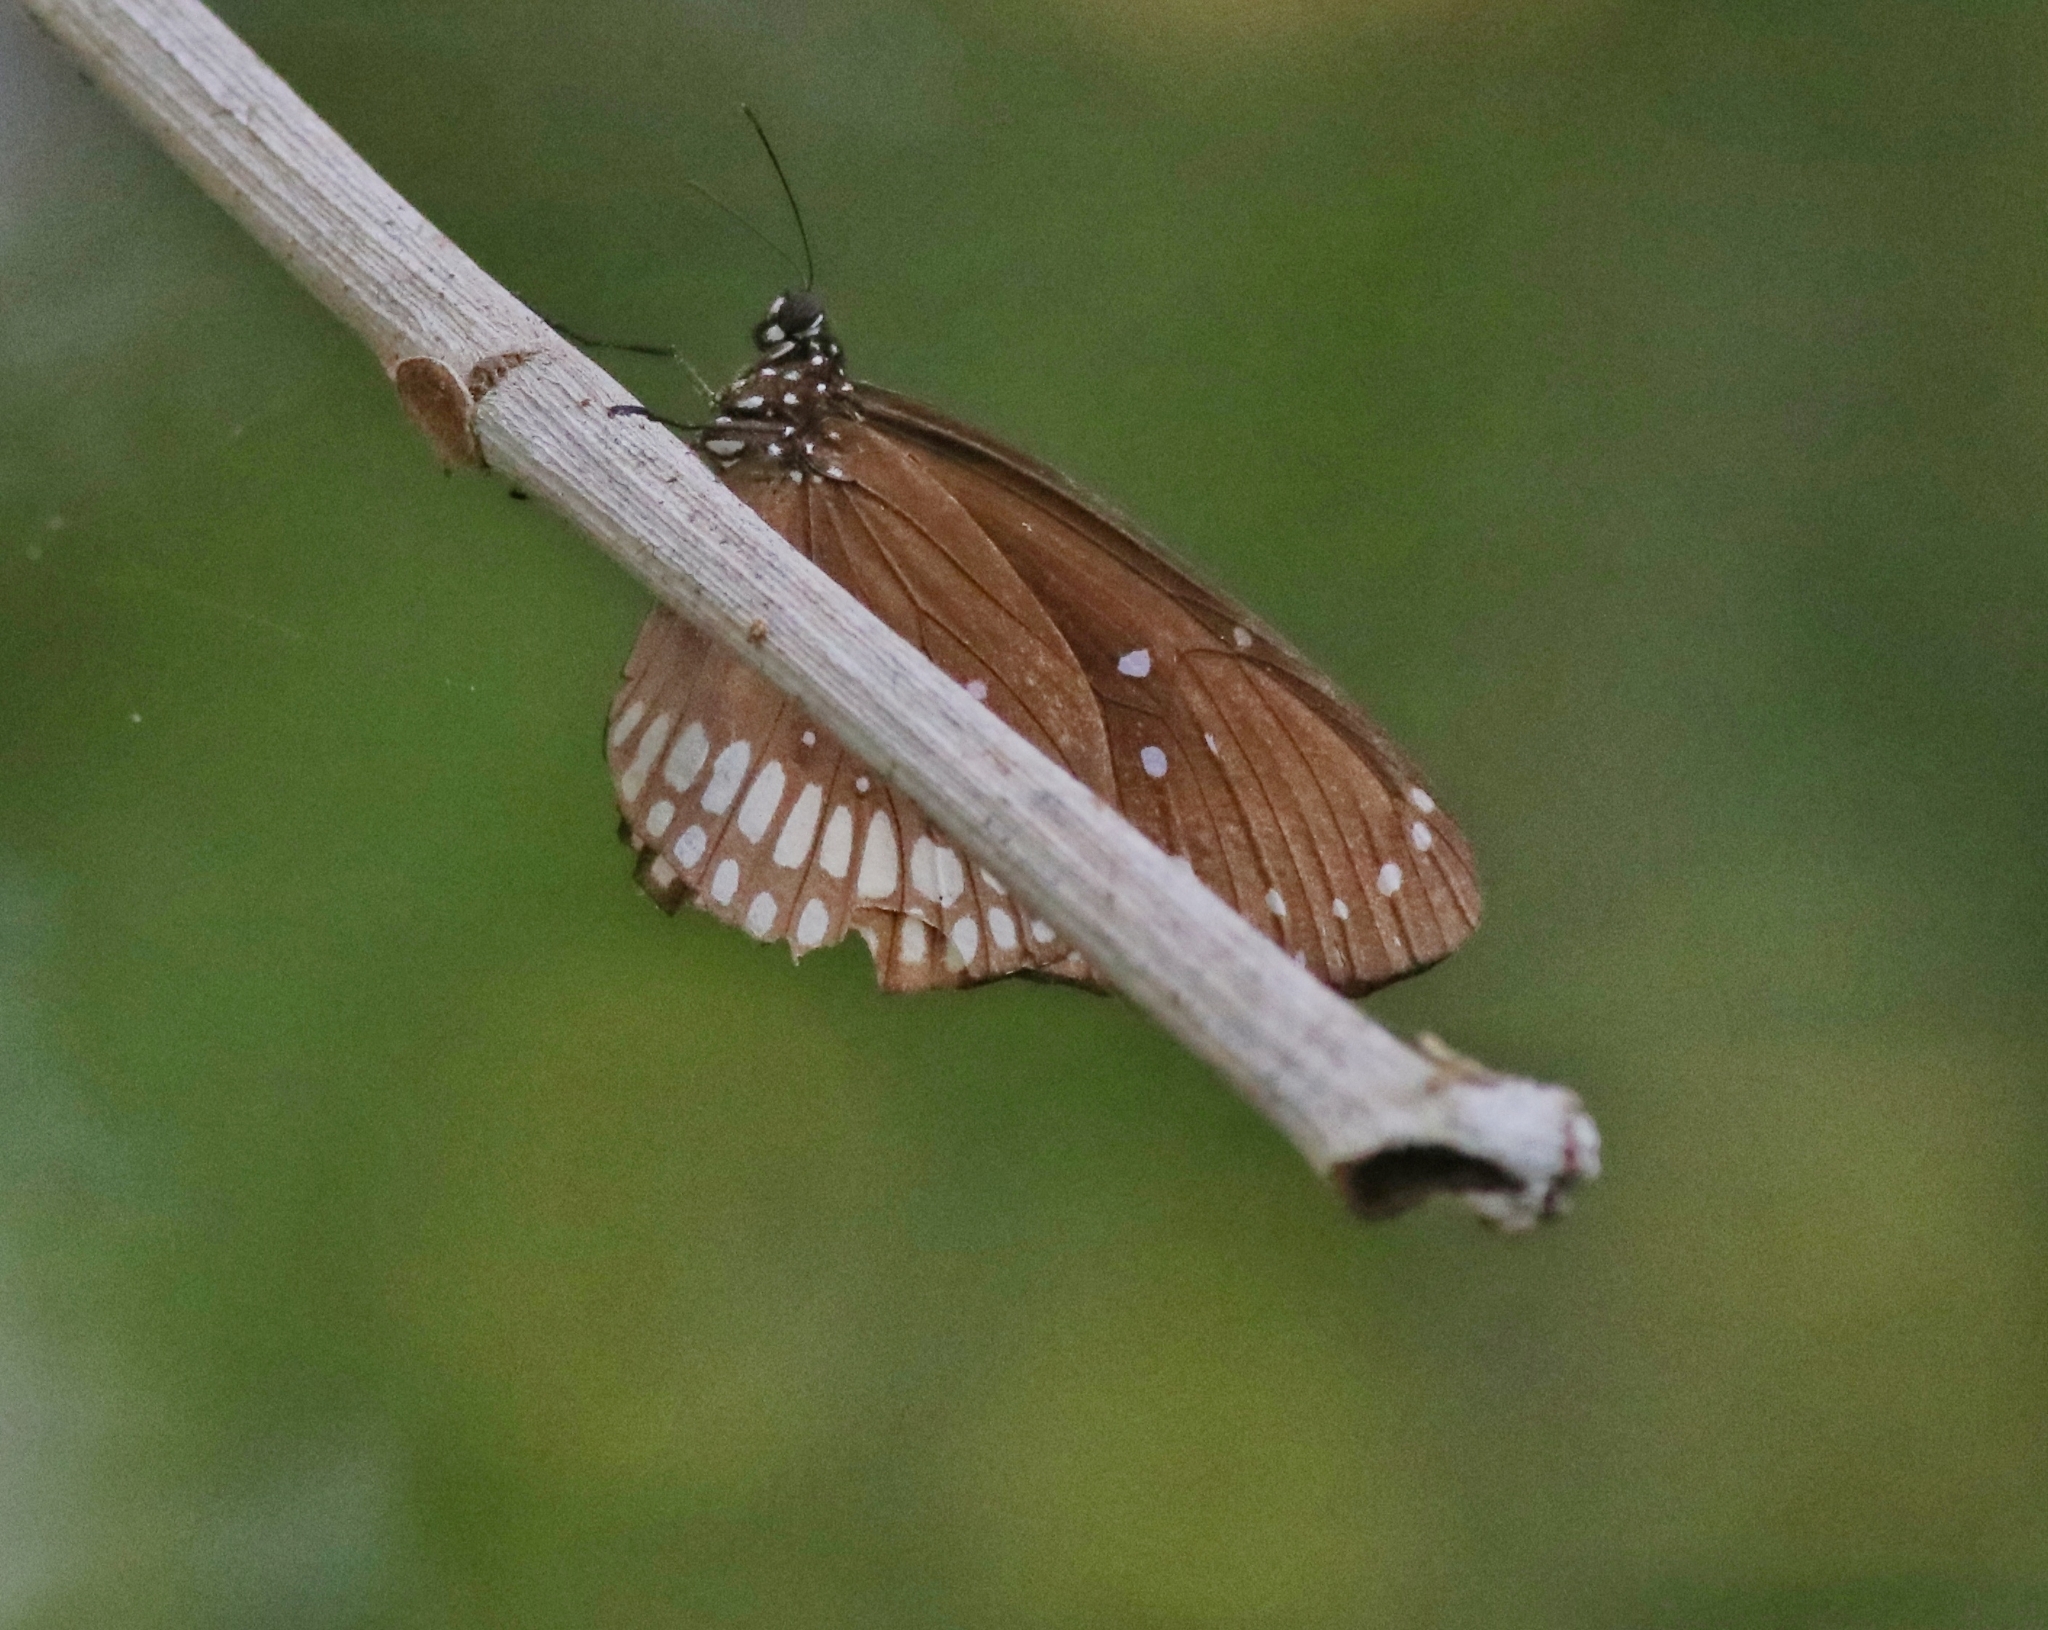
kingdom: Animalia
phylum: Arthropoda
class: Insecta
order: Lepidoptera
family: Nymphalidae
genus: Euploea
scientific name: Euploea core
